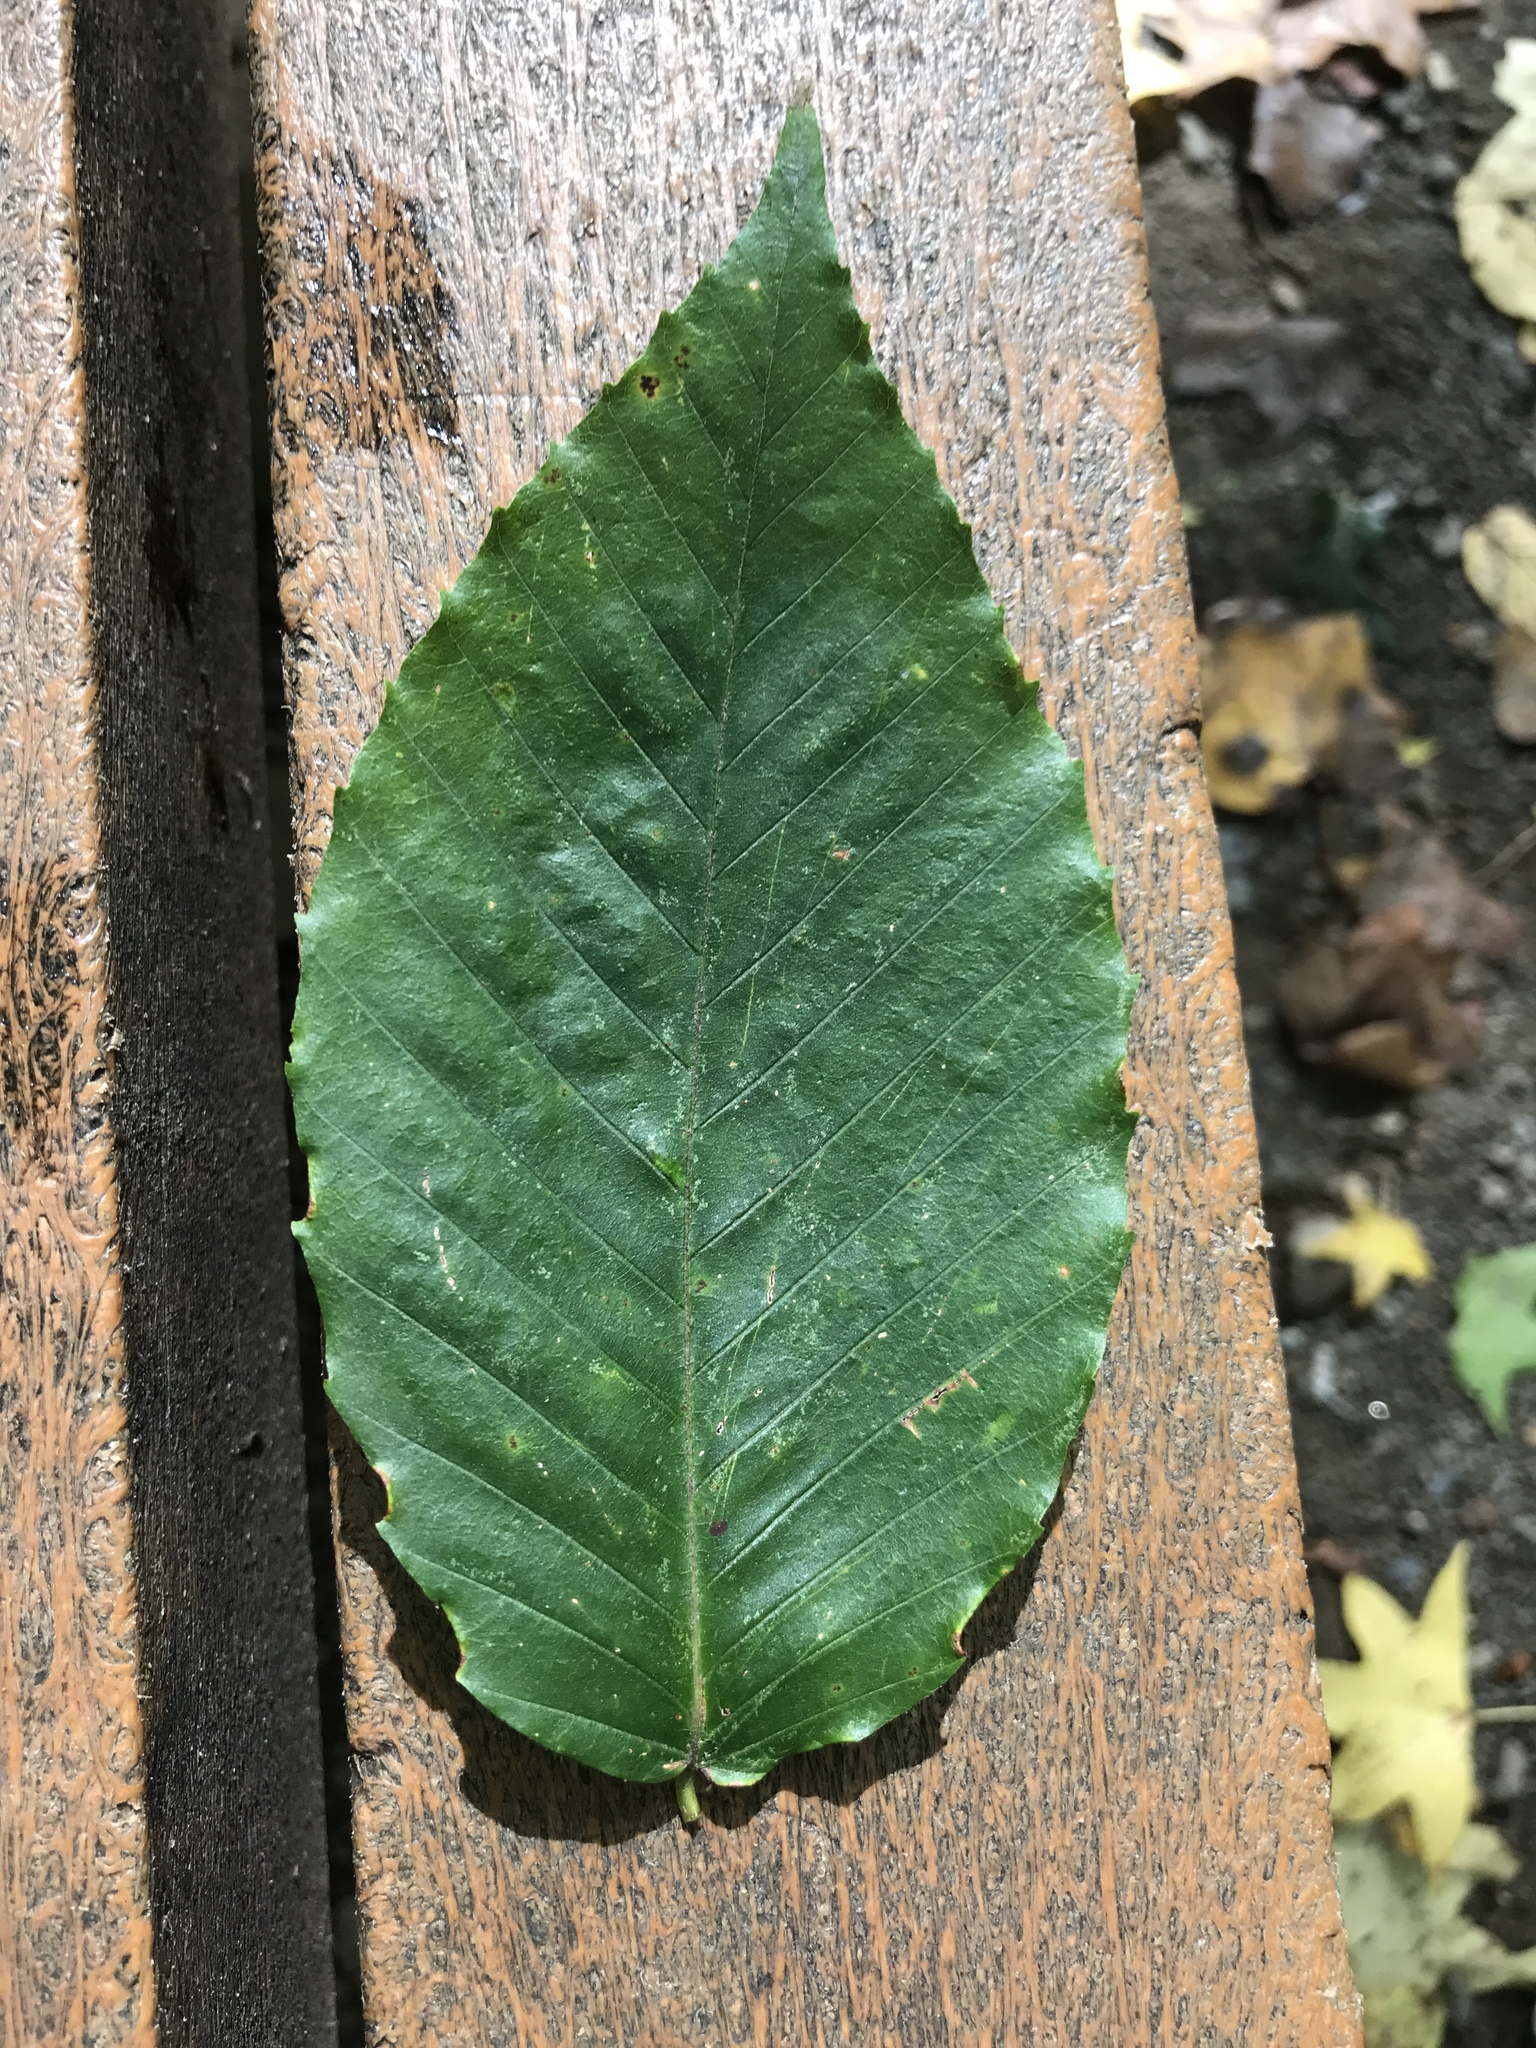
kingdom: Plantae
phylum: Tracheophyta
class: Magnoliopsida
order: Fagales
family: Fagaceae
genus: Fagus
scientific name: Fagus grandifolia
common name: American beech
